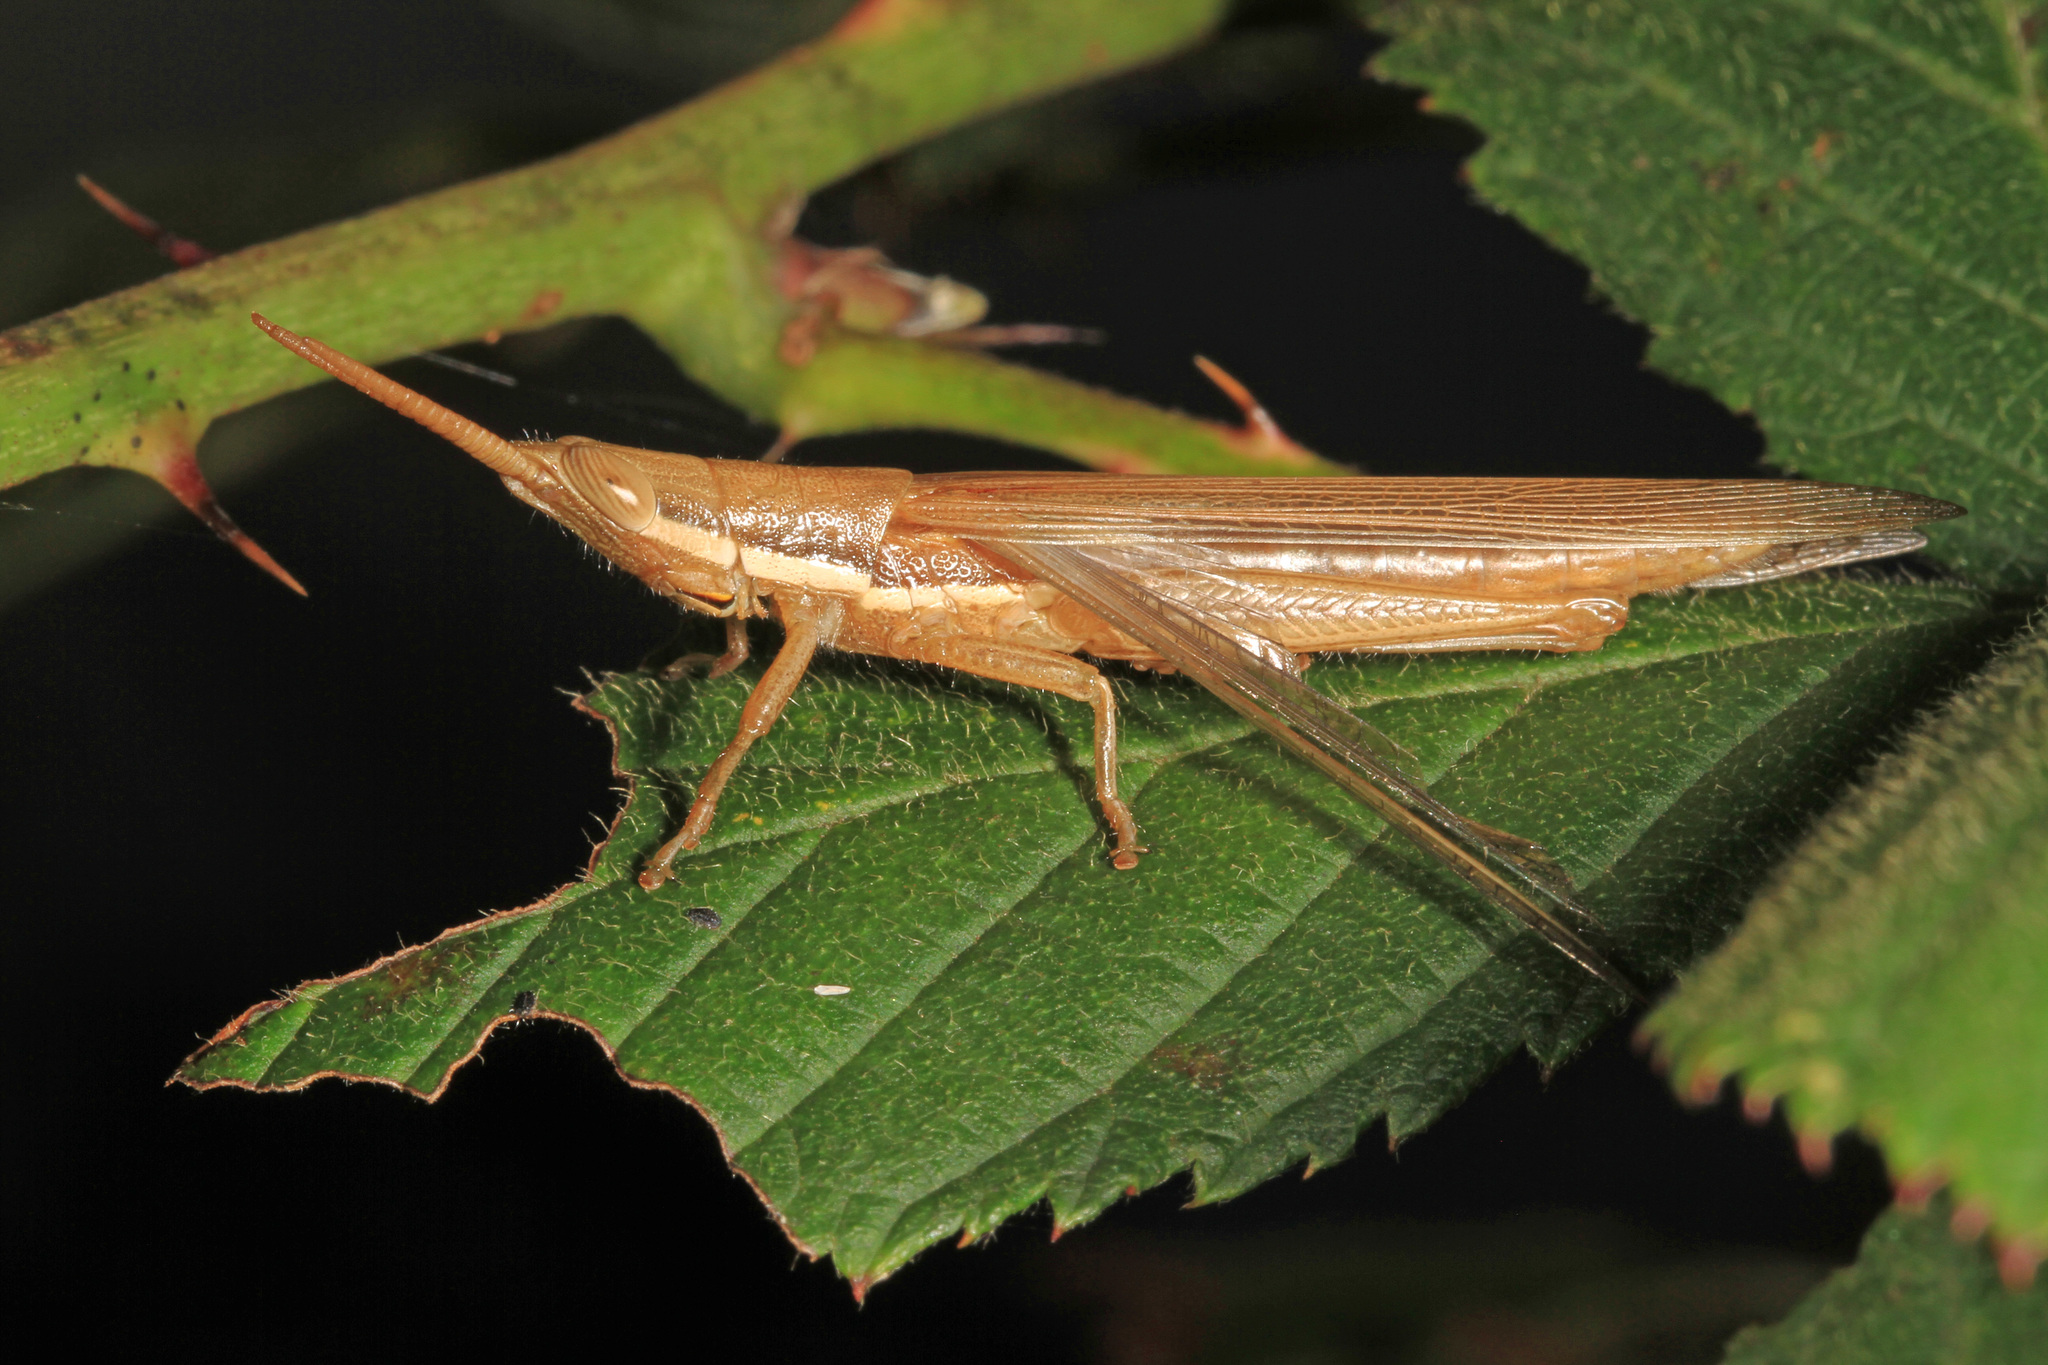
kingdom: Animalia
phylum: Arthropoda
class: Insecta
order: Orthoptera
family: Acrididae
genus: Leptysma
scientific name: Leptysma marginicollis
